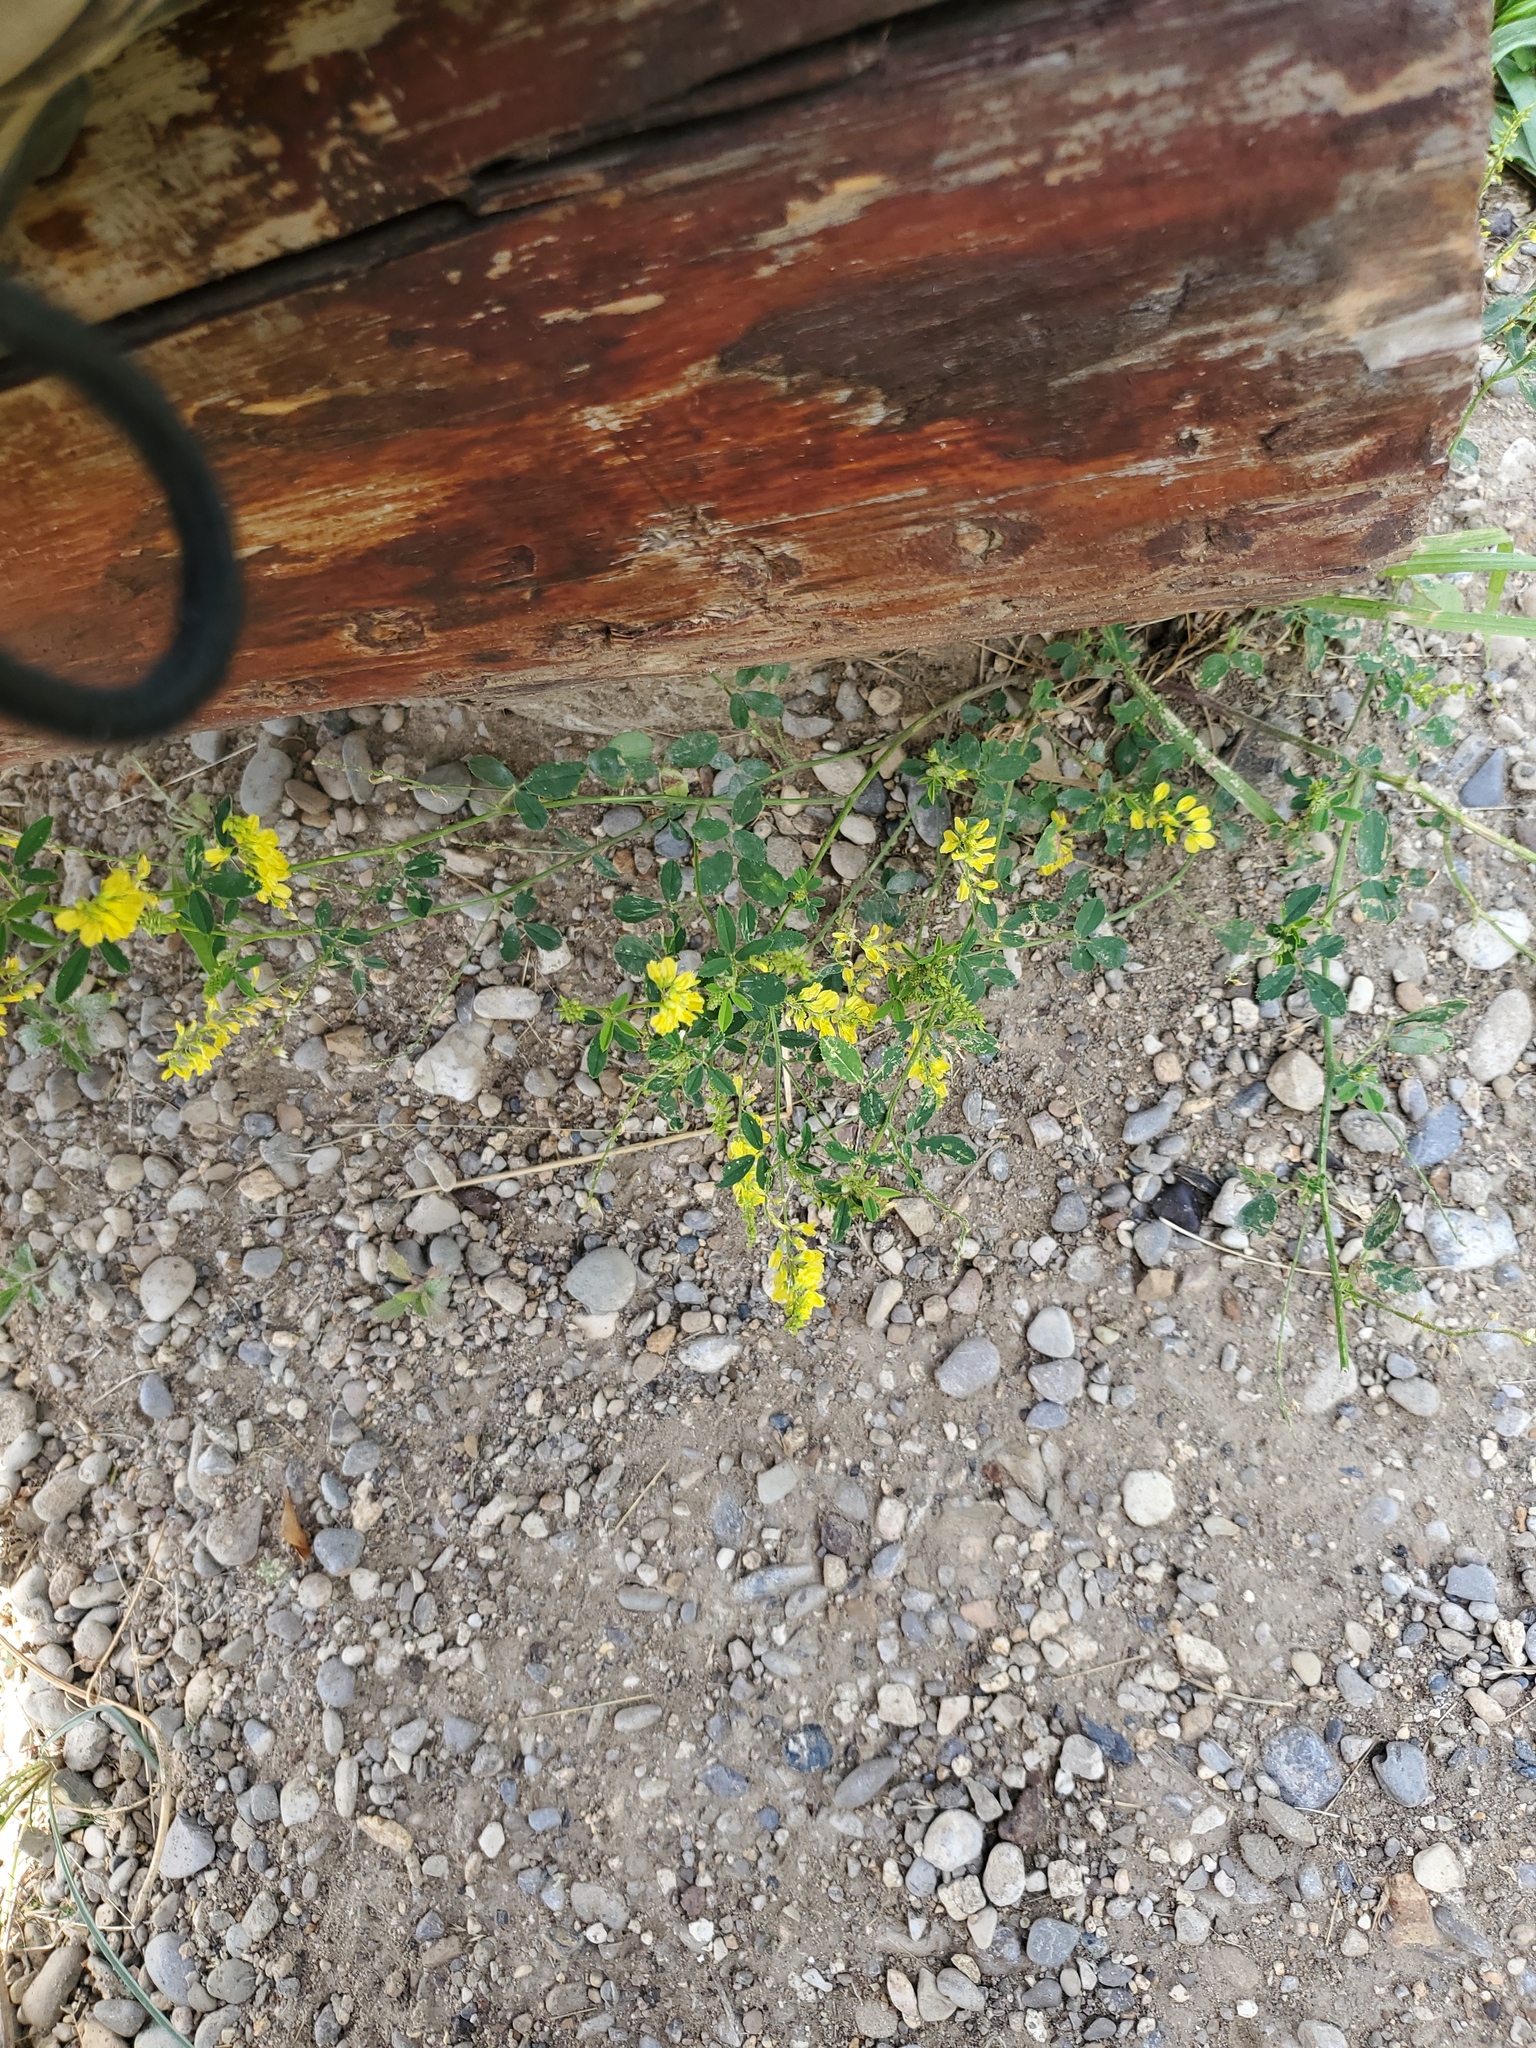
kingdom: Plantae
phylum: Tracheophyta
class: Magnoliopsida
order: Fabales
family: Fabaceae
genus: Melilotus
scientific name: Melilotus officinalis
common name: Sweetclover
